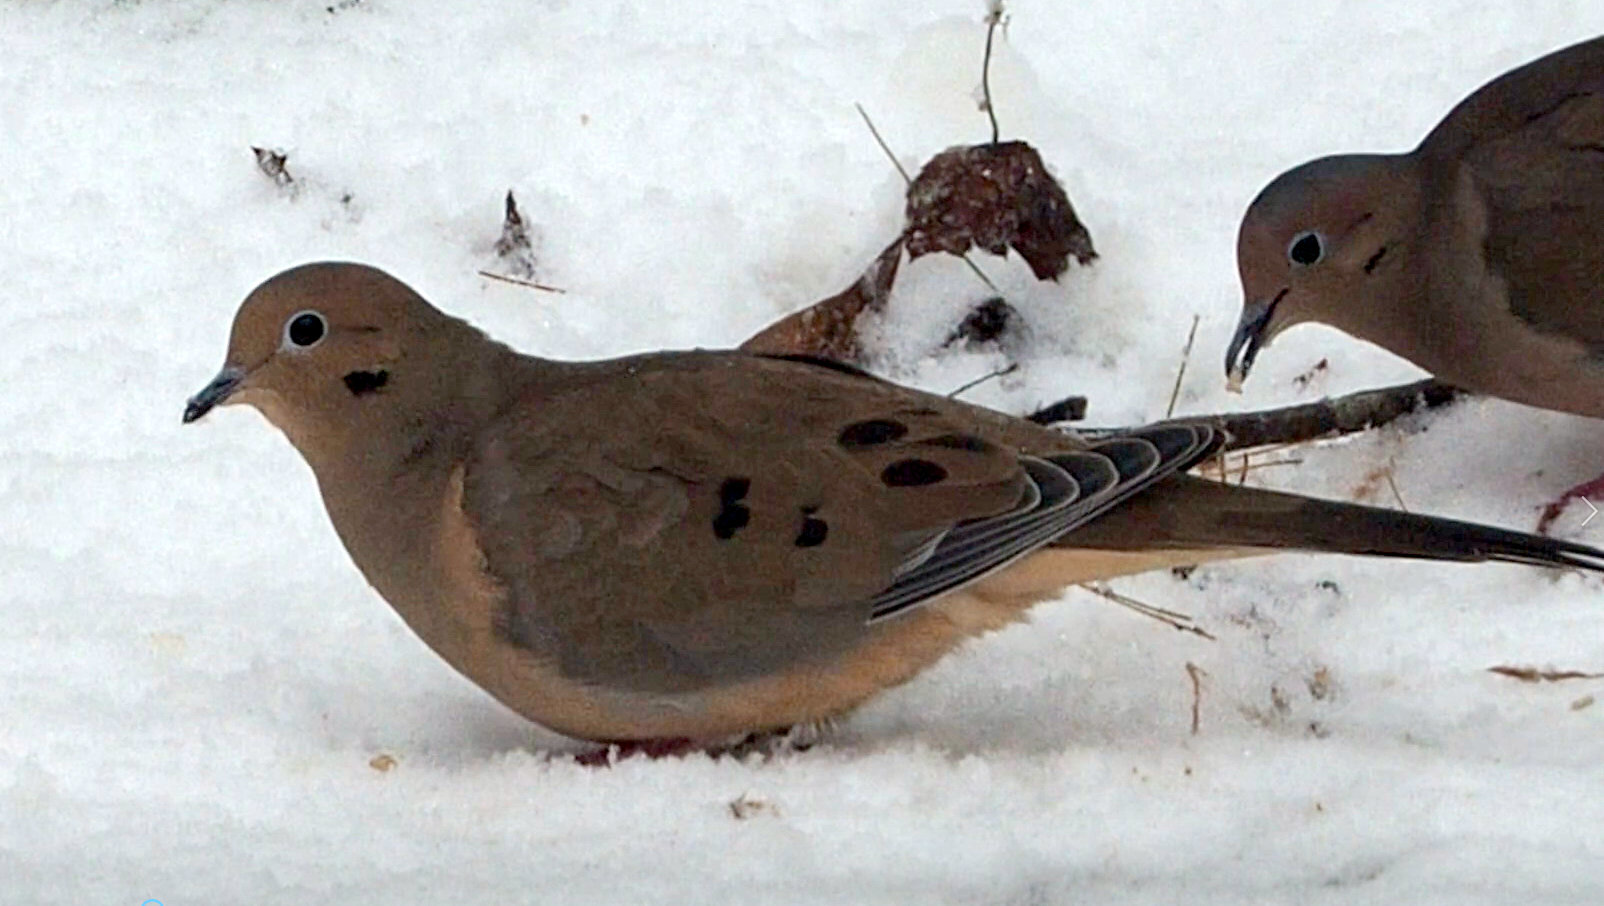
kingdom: Animalia
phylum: Chordata
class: Aves
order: Columbiformes
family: Columbidae
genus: Zenaida
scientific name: Zenaida macroura
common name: Mourning dove
